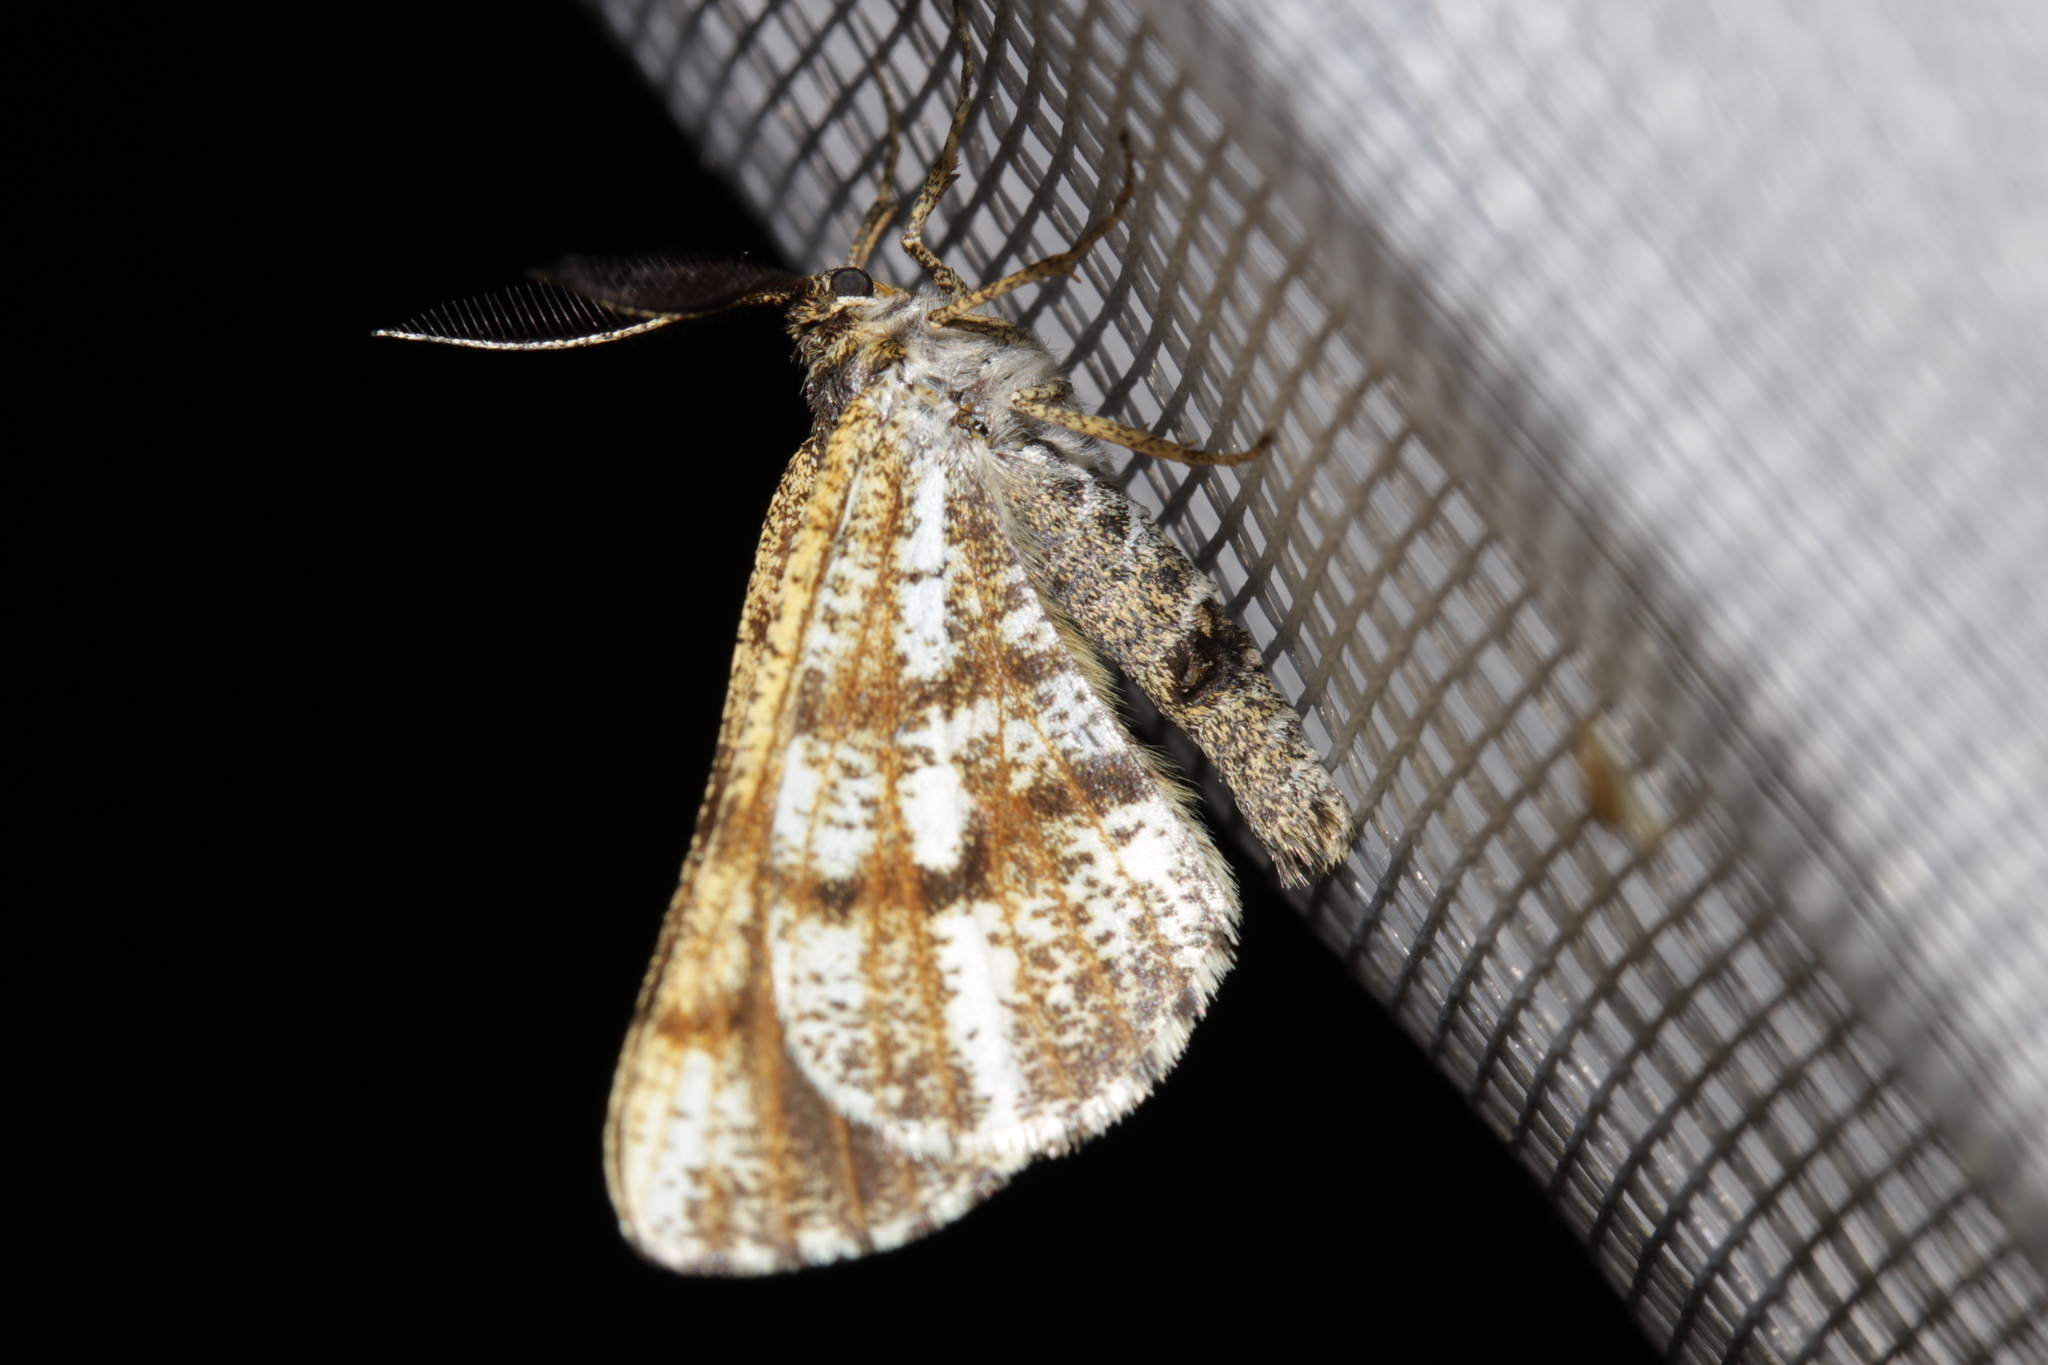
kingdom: Animalia
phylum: Arthropoda
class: Insecta
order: Lepidoptera
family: Geometridae
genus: Bupalus
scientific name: Bupalus piniaria
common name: Bordered white
